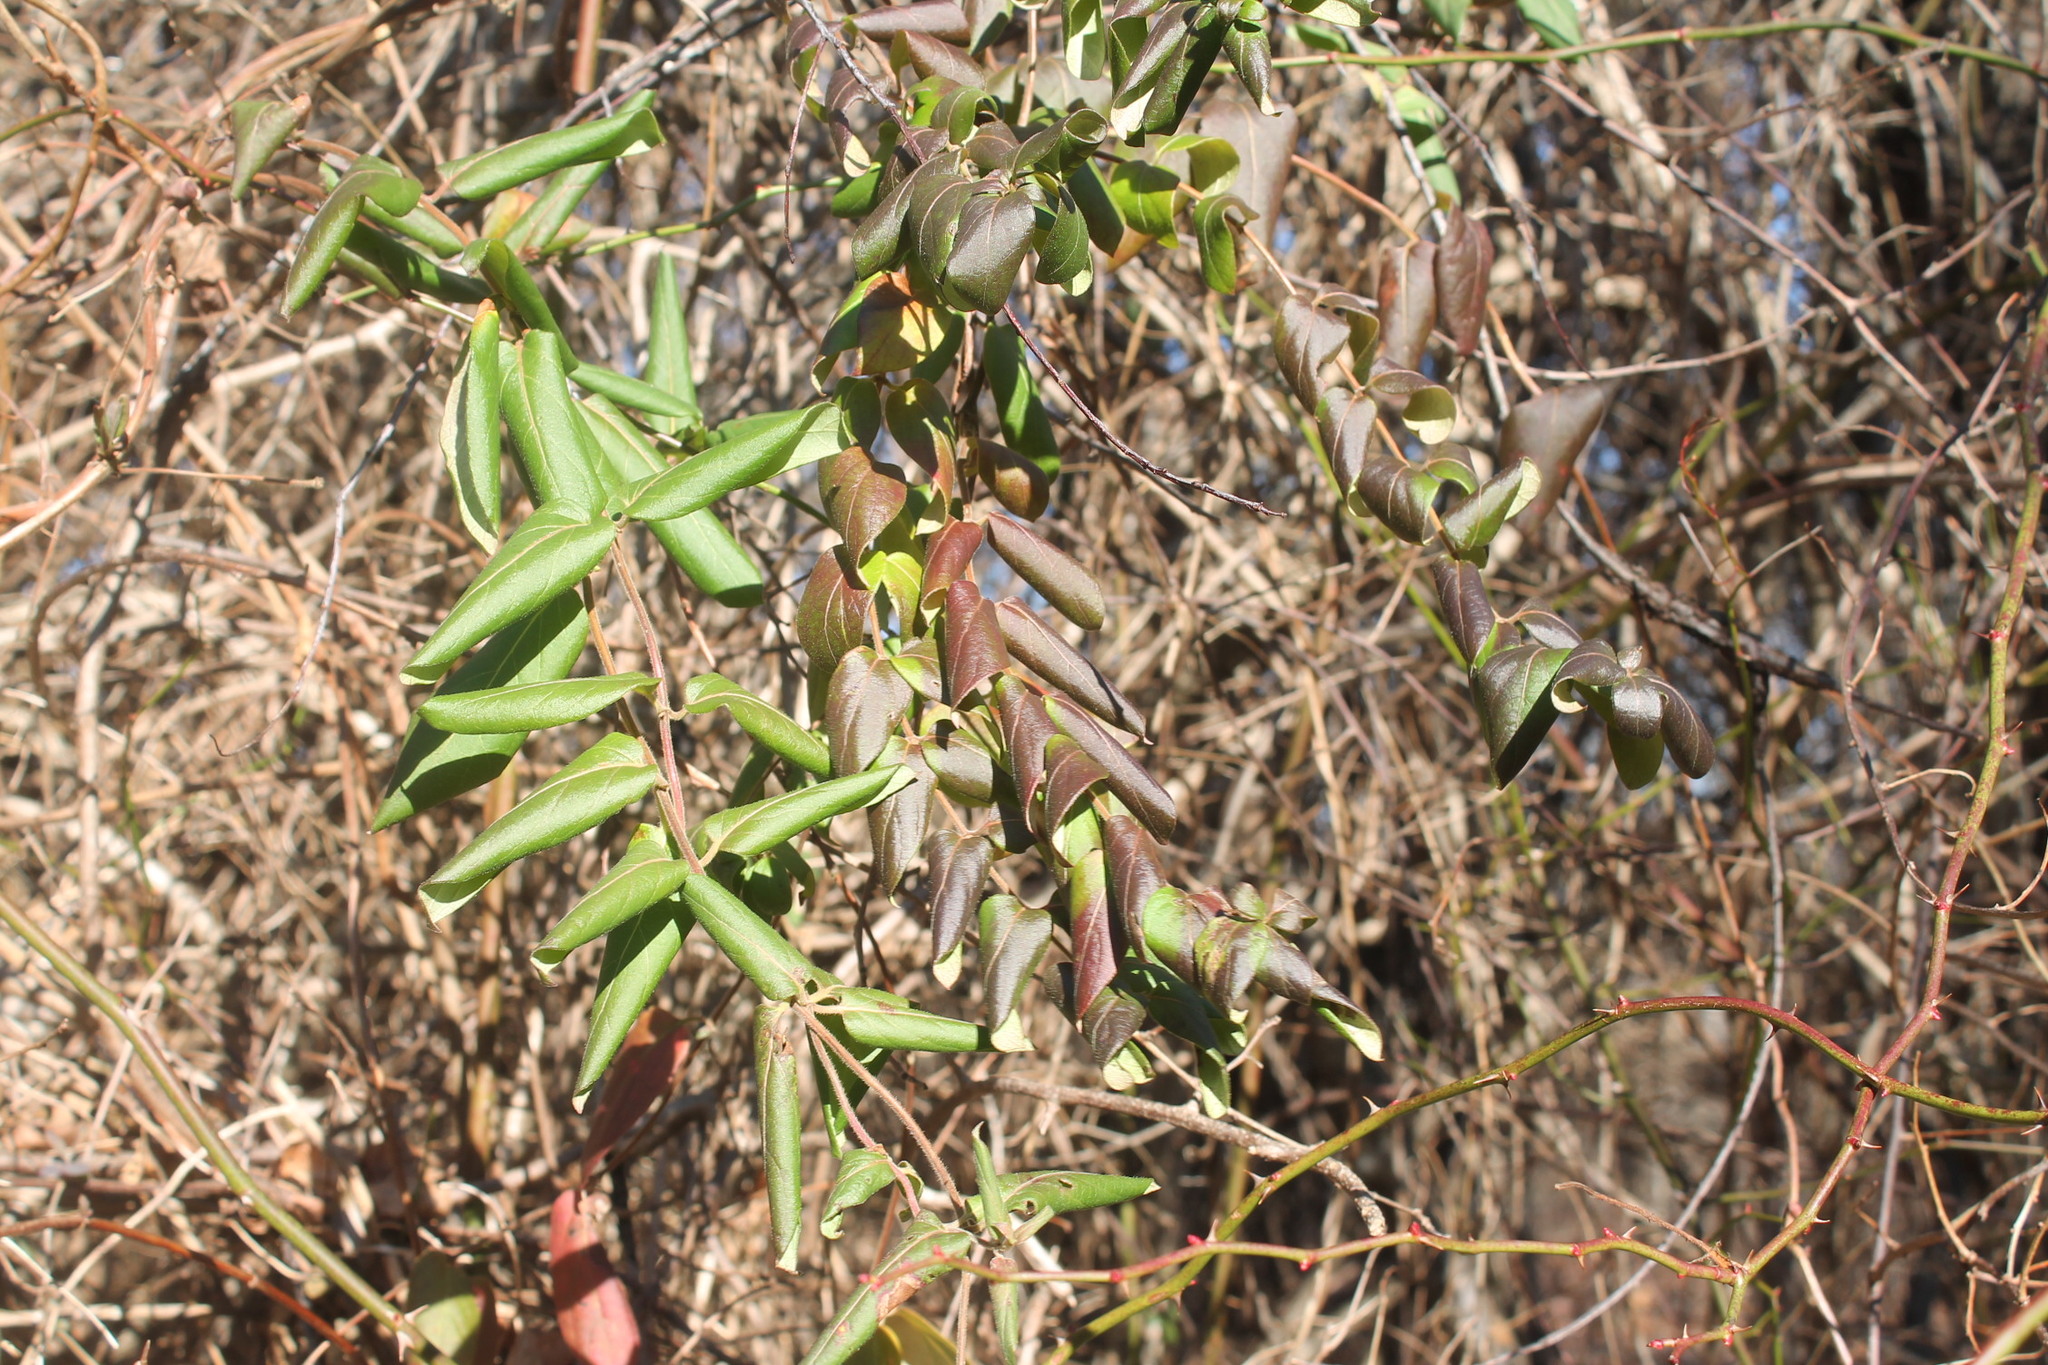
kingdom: Plantae
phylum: Tracheophyta
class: Magnoliopsida
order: Dipsacales
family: Caprifoliaceae
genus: Lonicera
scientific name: Lonicera japonica
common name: Japanese honeysuckle
